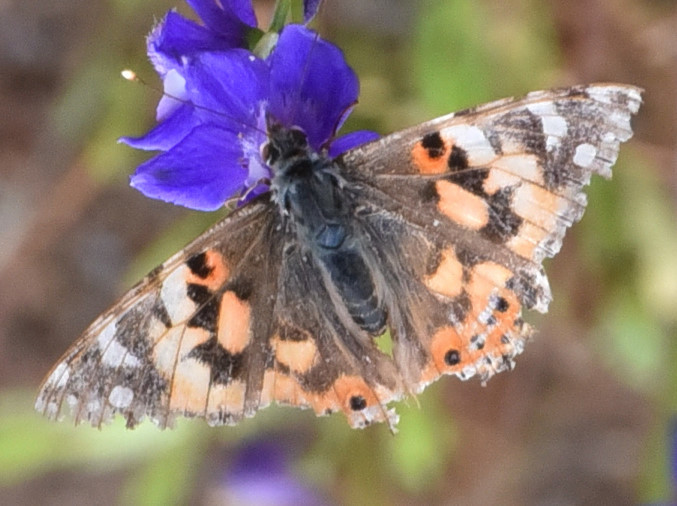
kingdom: Animalia
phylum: Arthropoda
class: Insecta
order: Lepidoptera
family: Nymphalidae
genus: Vanessa
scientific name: Vanessa cardui
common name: Painted lady
